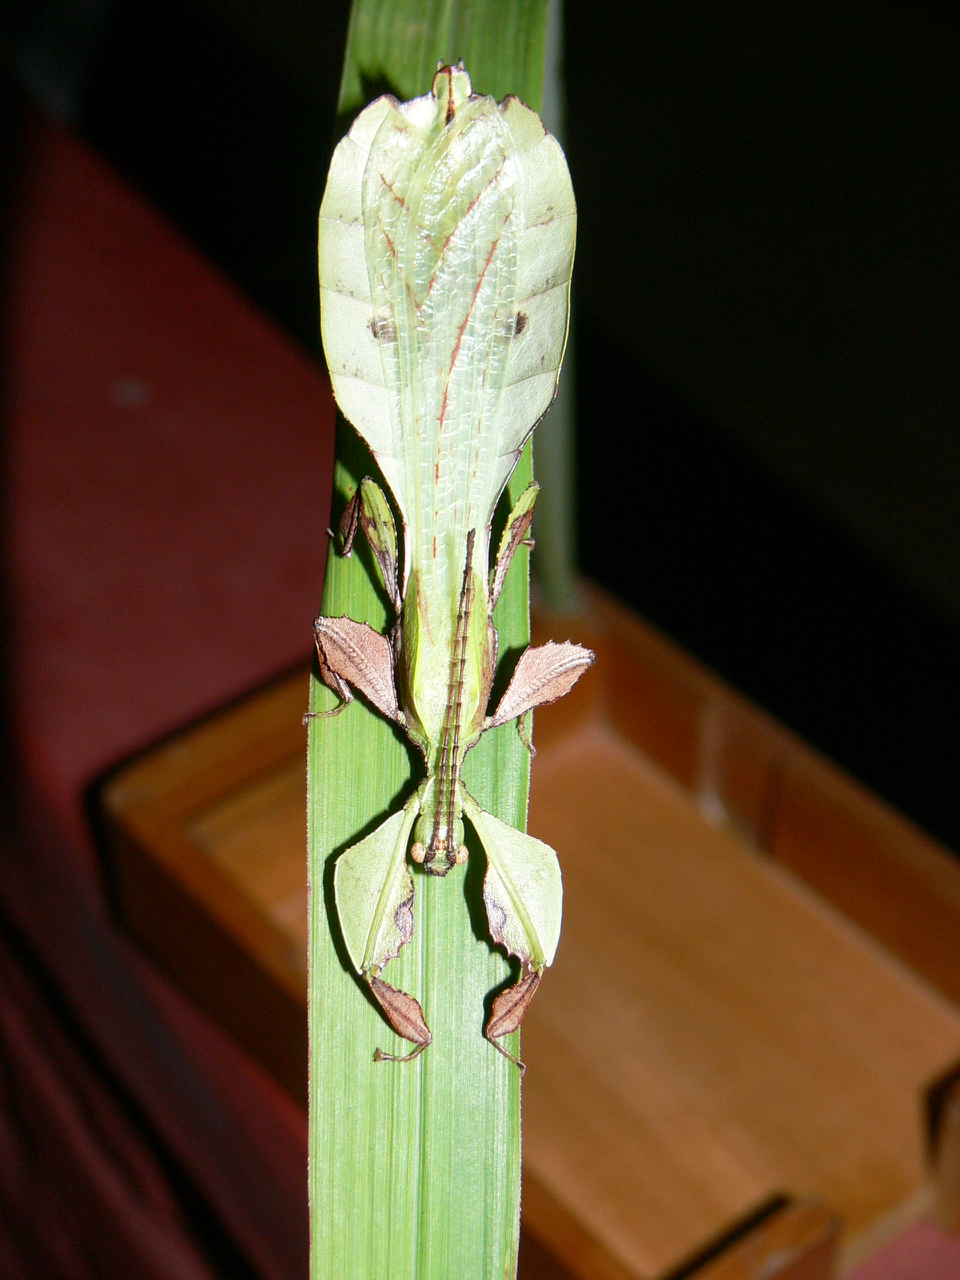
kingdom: Animalia
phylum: Arthropoda
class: Insecta
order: Phasmida
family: Phylliidae
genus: Pulchriphyllium
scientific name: Pulchriphyllium anangu
